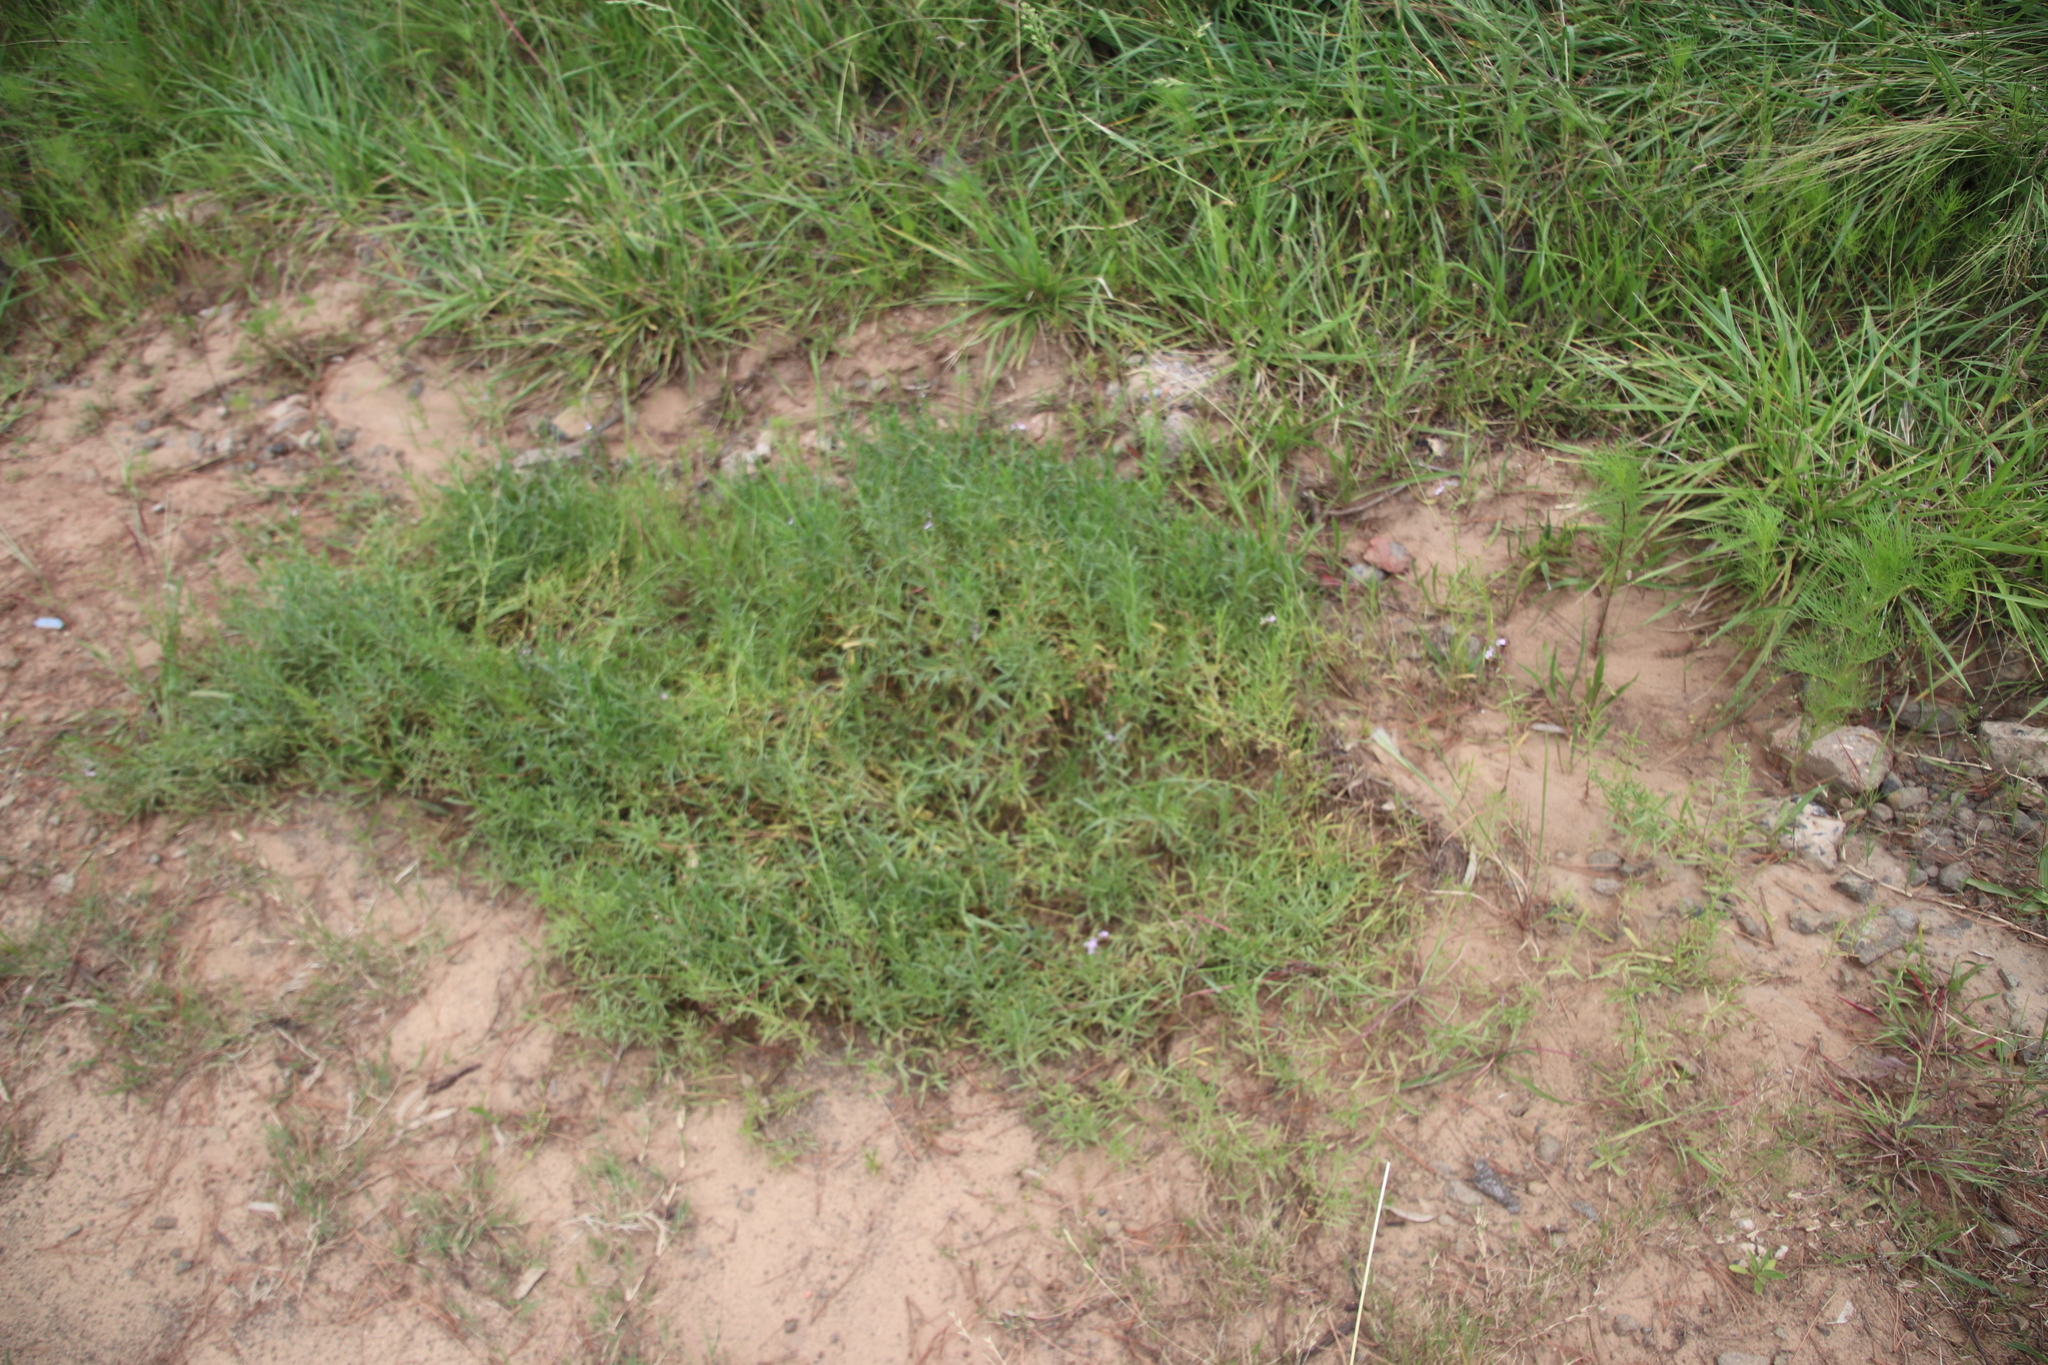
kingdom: Plantae
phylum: Tracheophyta
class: Magnoliopsida
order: Lamiales
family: Lamiaceae
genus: Stachys
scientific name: Stachys hyssopoides
